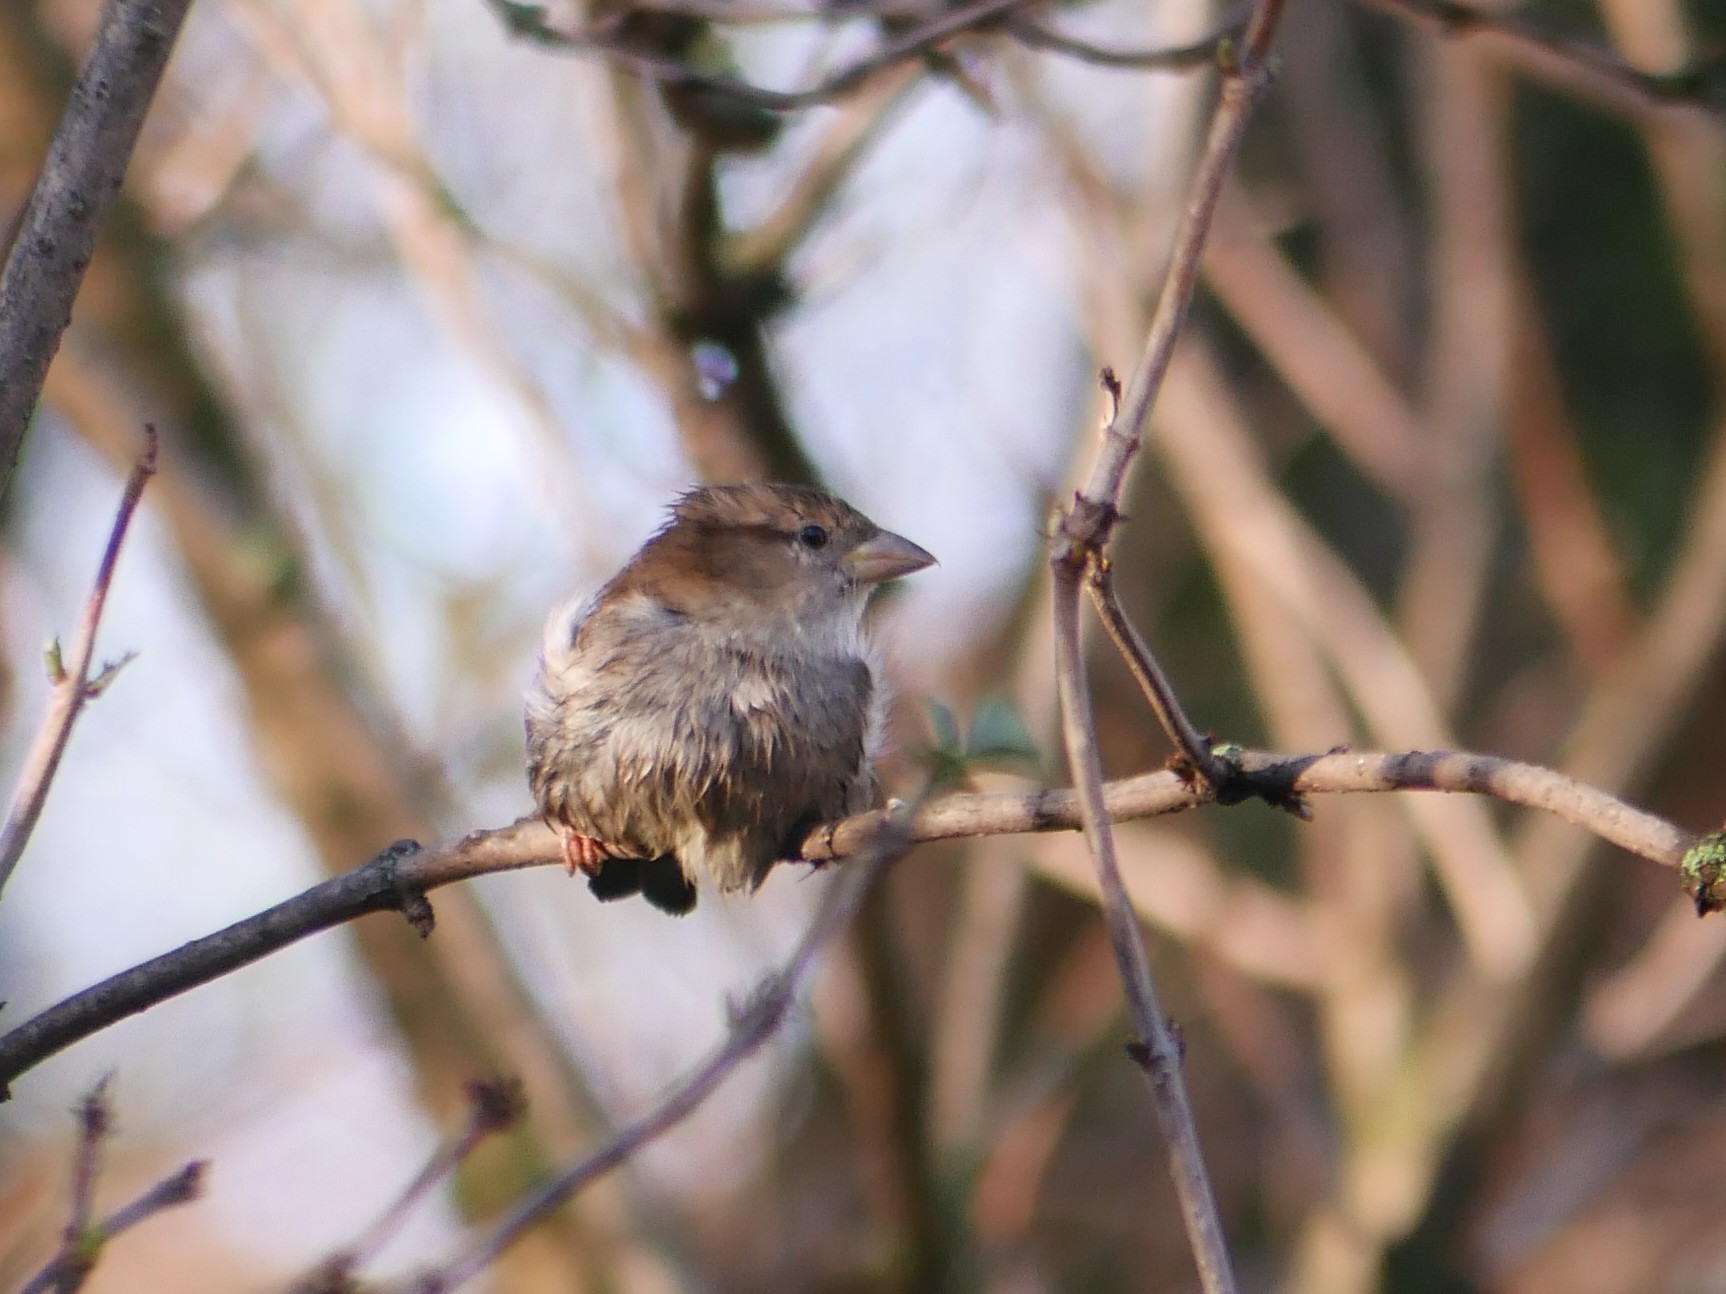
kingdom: Animalia
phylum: Chordata
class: Aves
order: Passeriformes
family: Passeridae
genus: Passer
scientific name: Passer domesticus
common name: House sparrow
